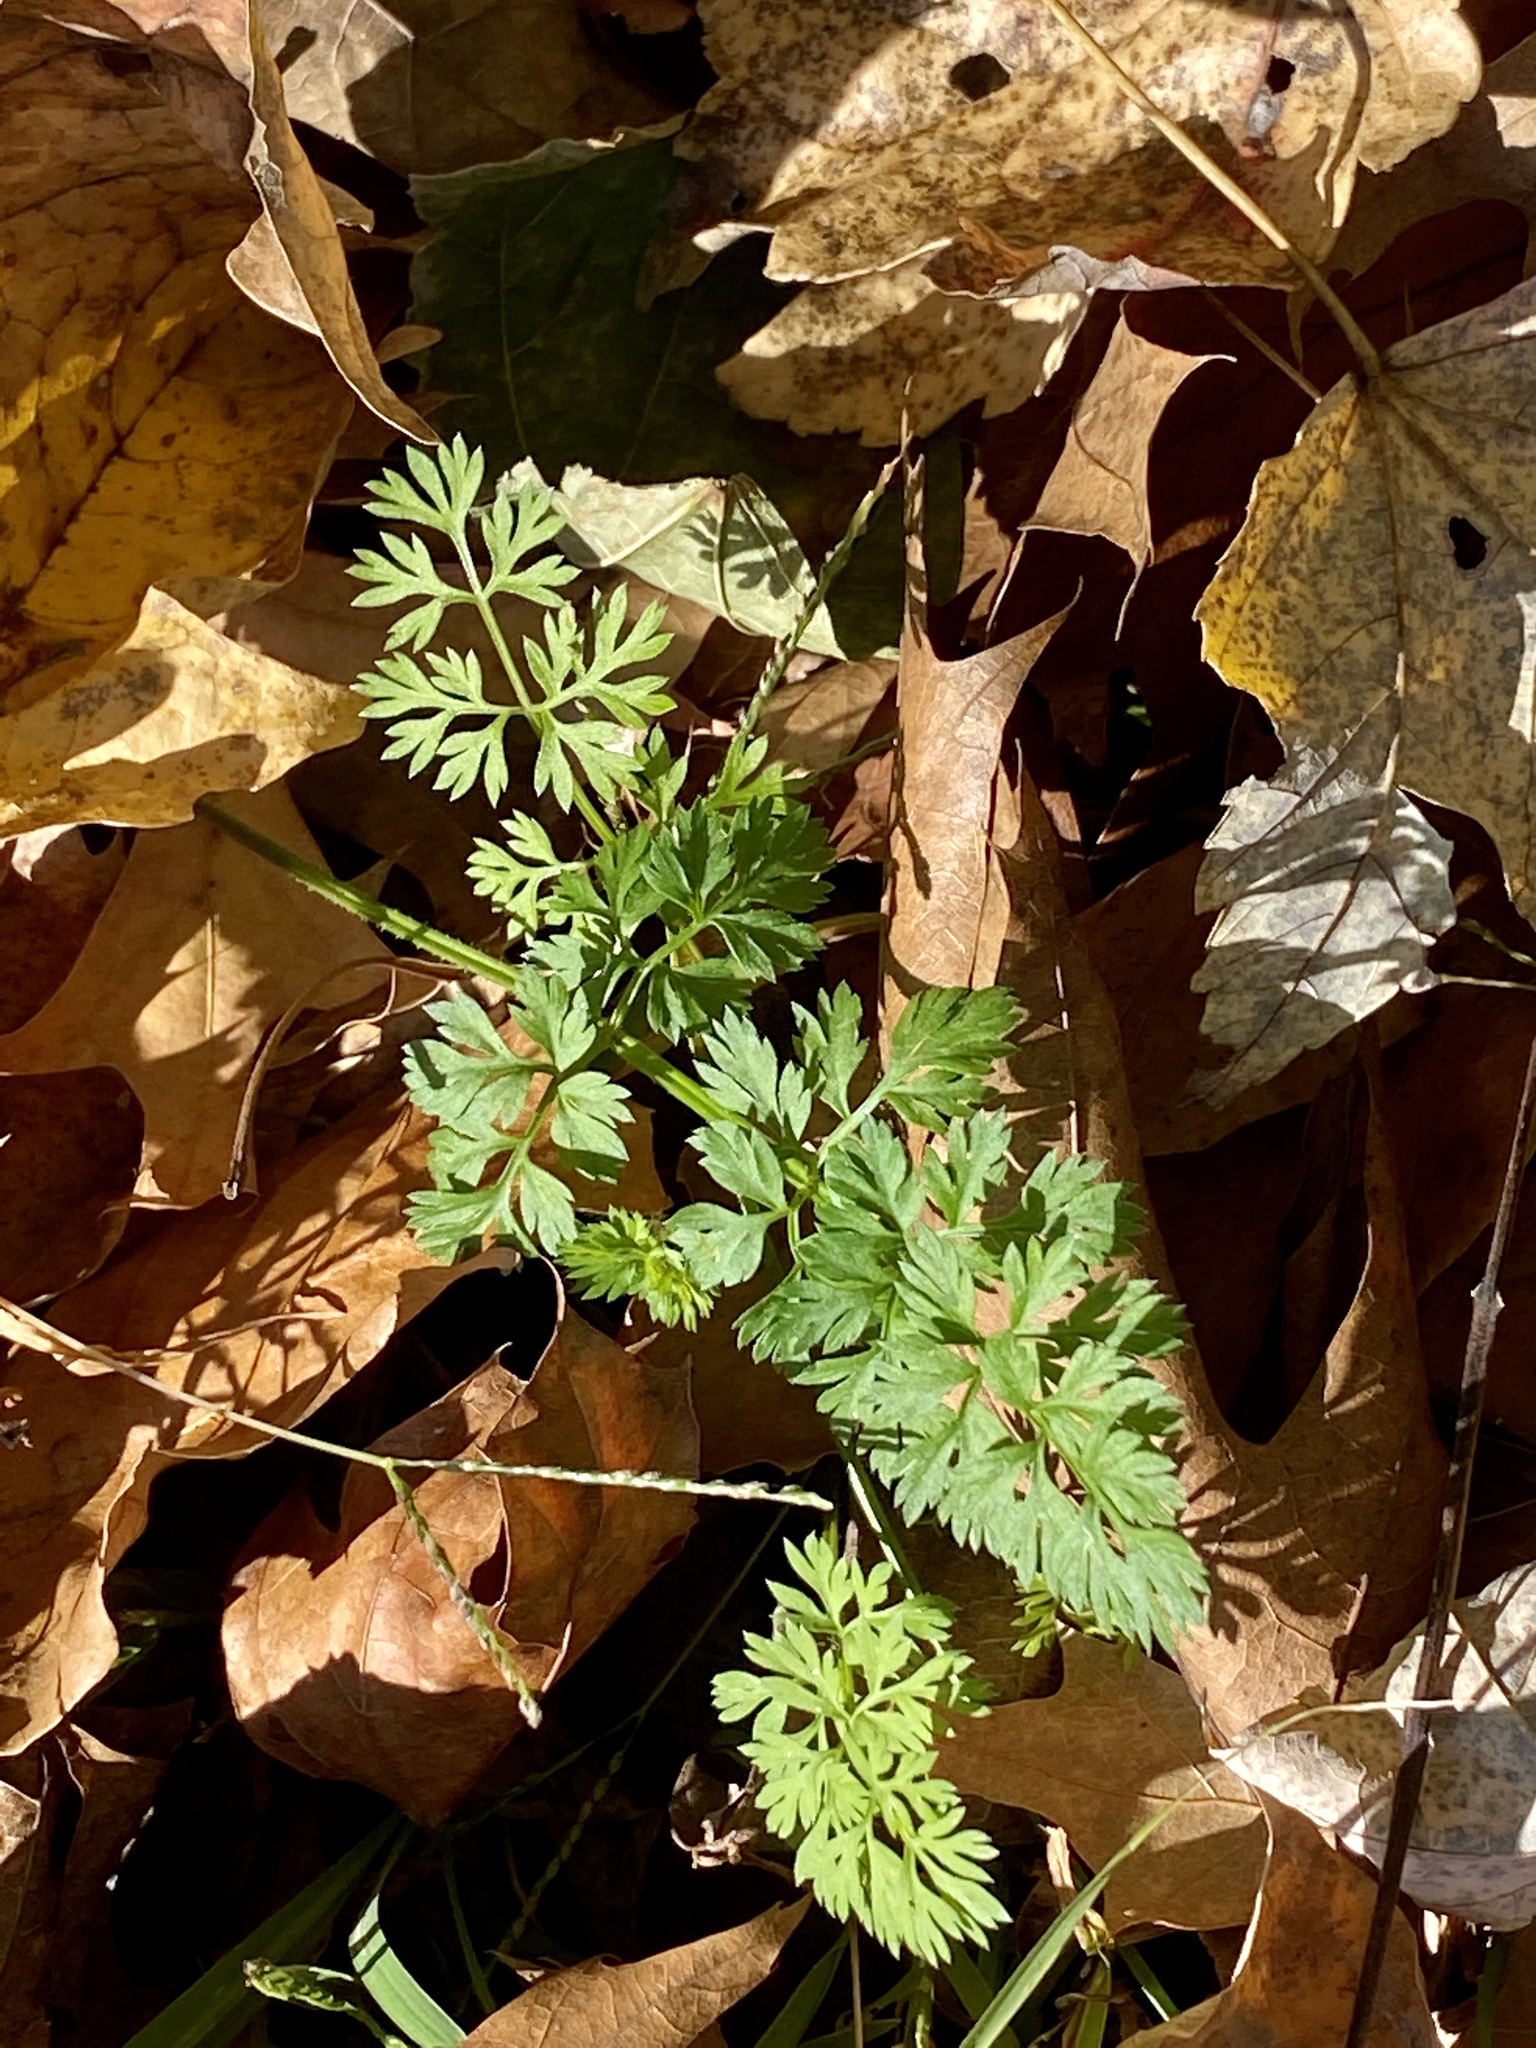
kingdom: Plantae
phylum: Tracheophyta
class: Magnoliopsida
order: Apiales
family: Apiaceae
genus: Daucus
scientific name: Daucus carota
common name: Wild carrot
